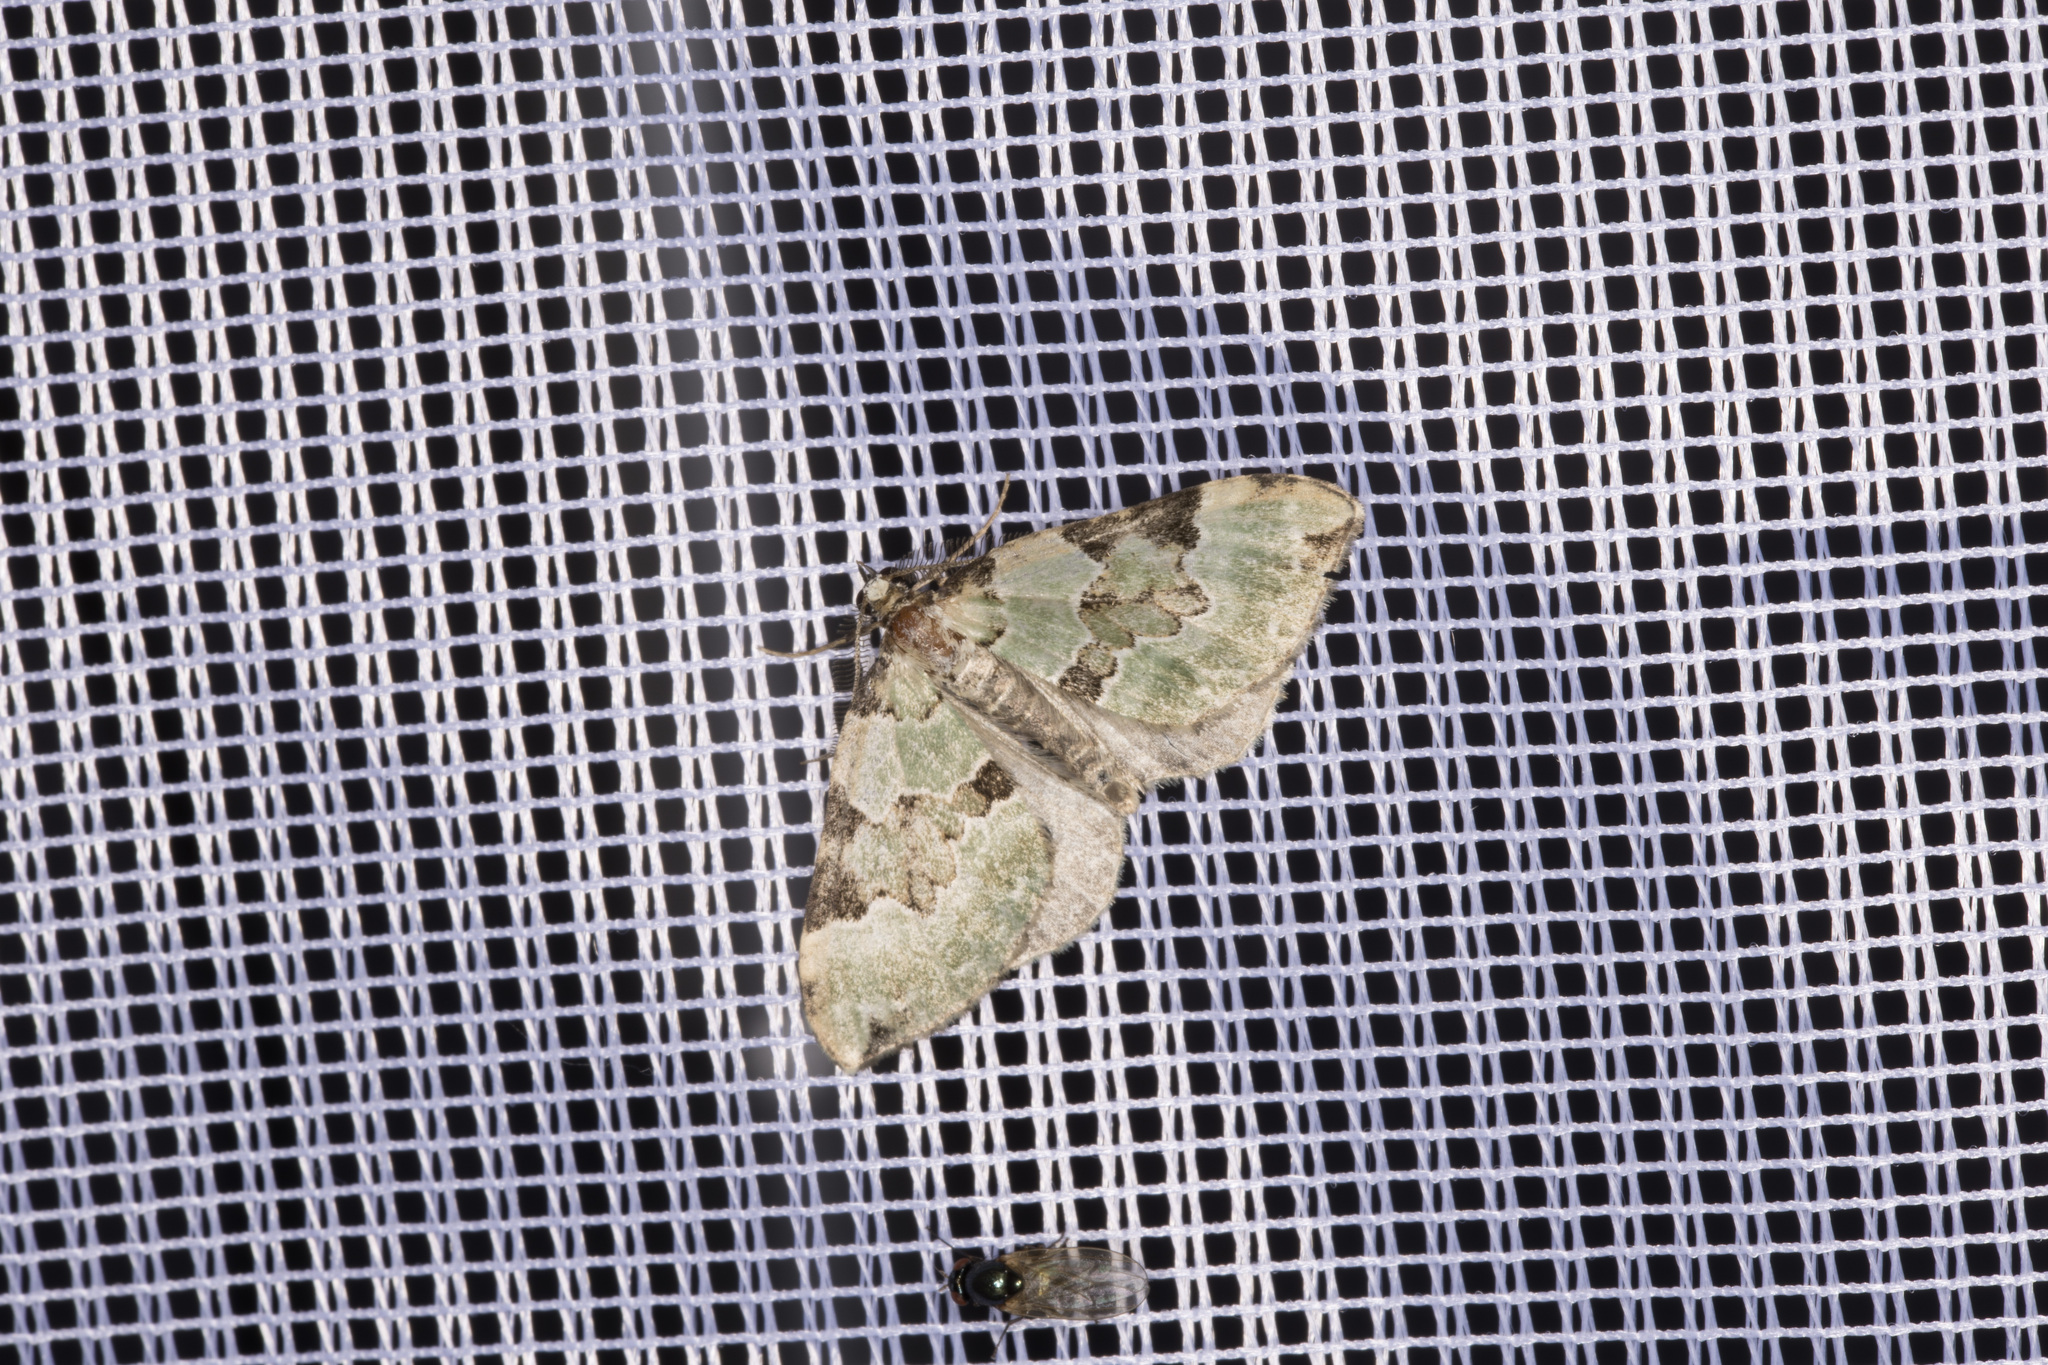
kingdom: Animalia
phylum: Arthropoda
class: Insecta
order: Lepidoptera
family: Geometridae
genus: Colostygia
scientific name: Colostygia pectinataria
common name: Green carpet
